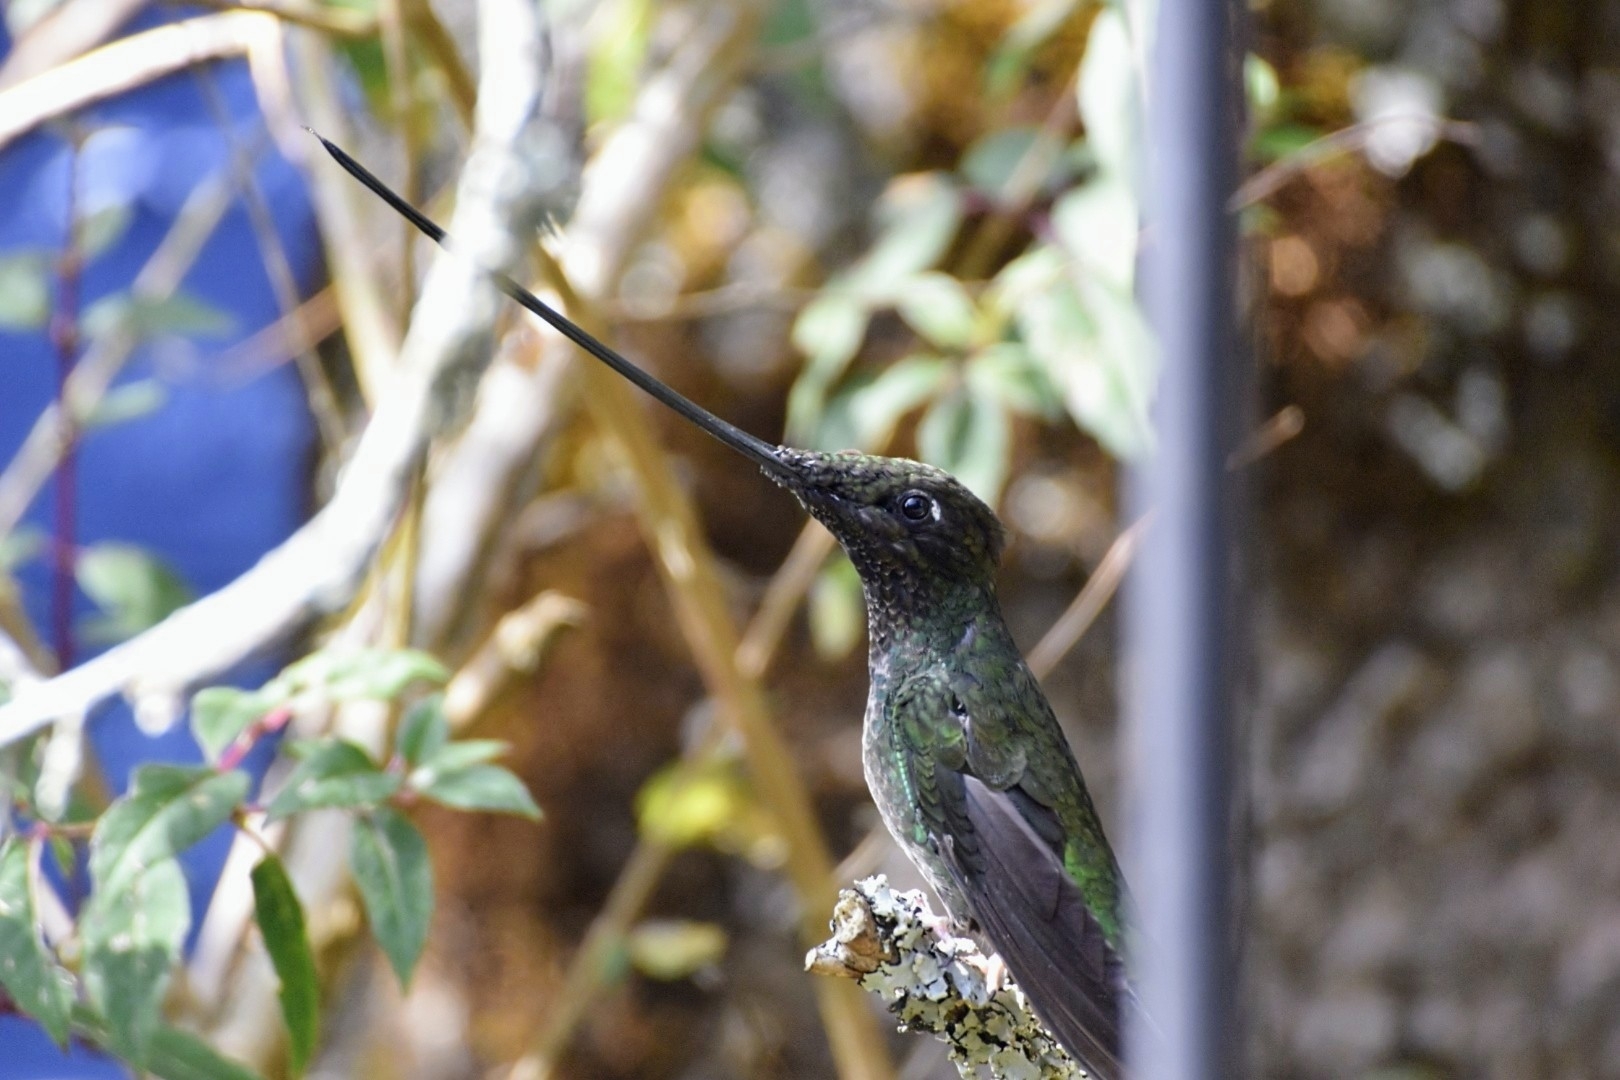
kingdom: Animalia
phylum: Chordata
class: Aves
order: Apodiformes
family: Trochilidae
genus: Ensifera
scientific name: Ensifera ensifera
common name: Sword-billed hummingbird
